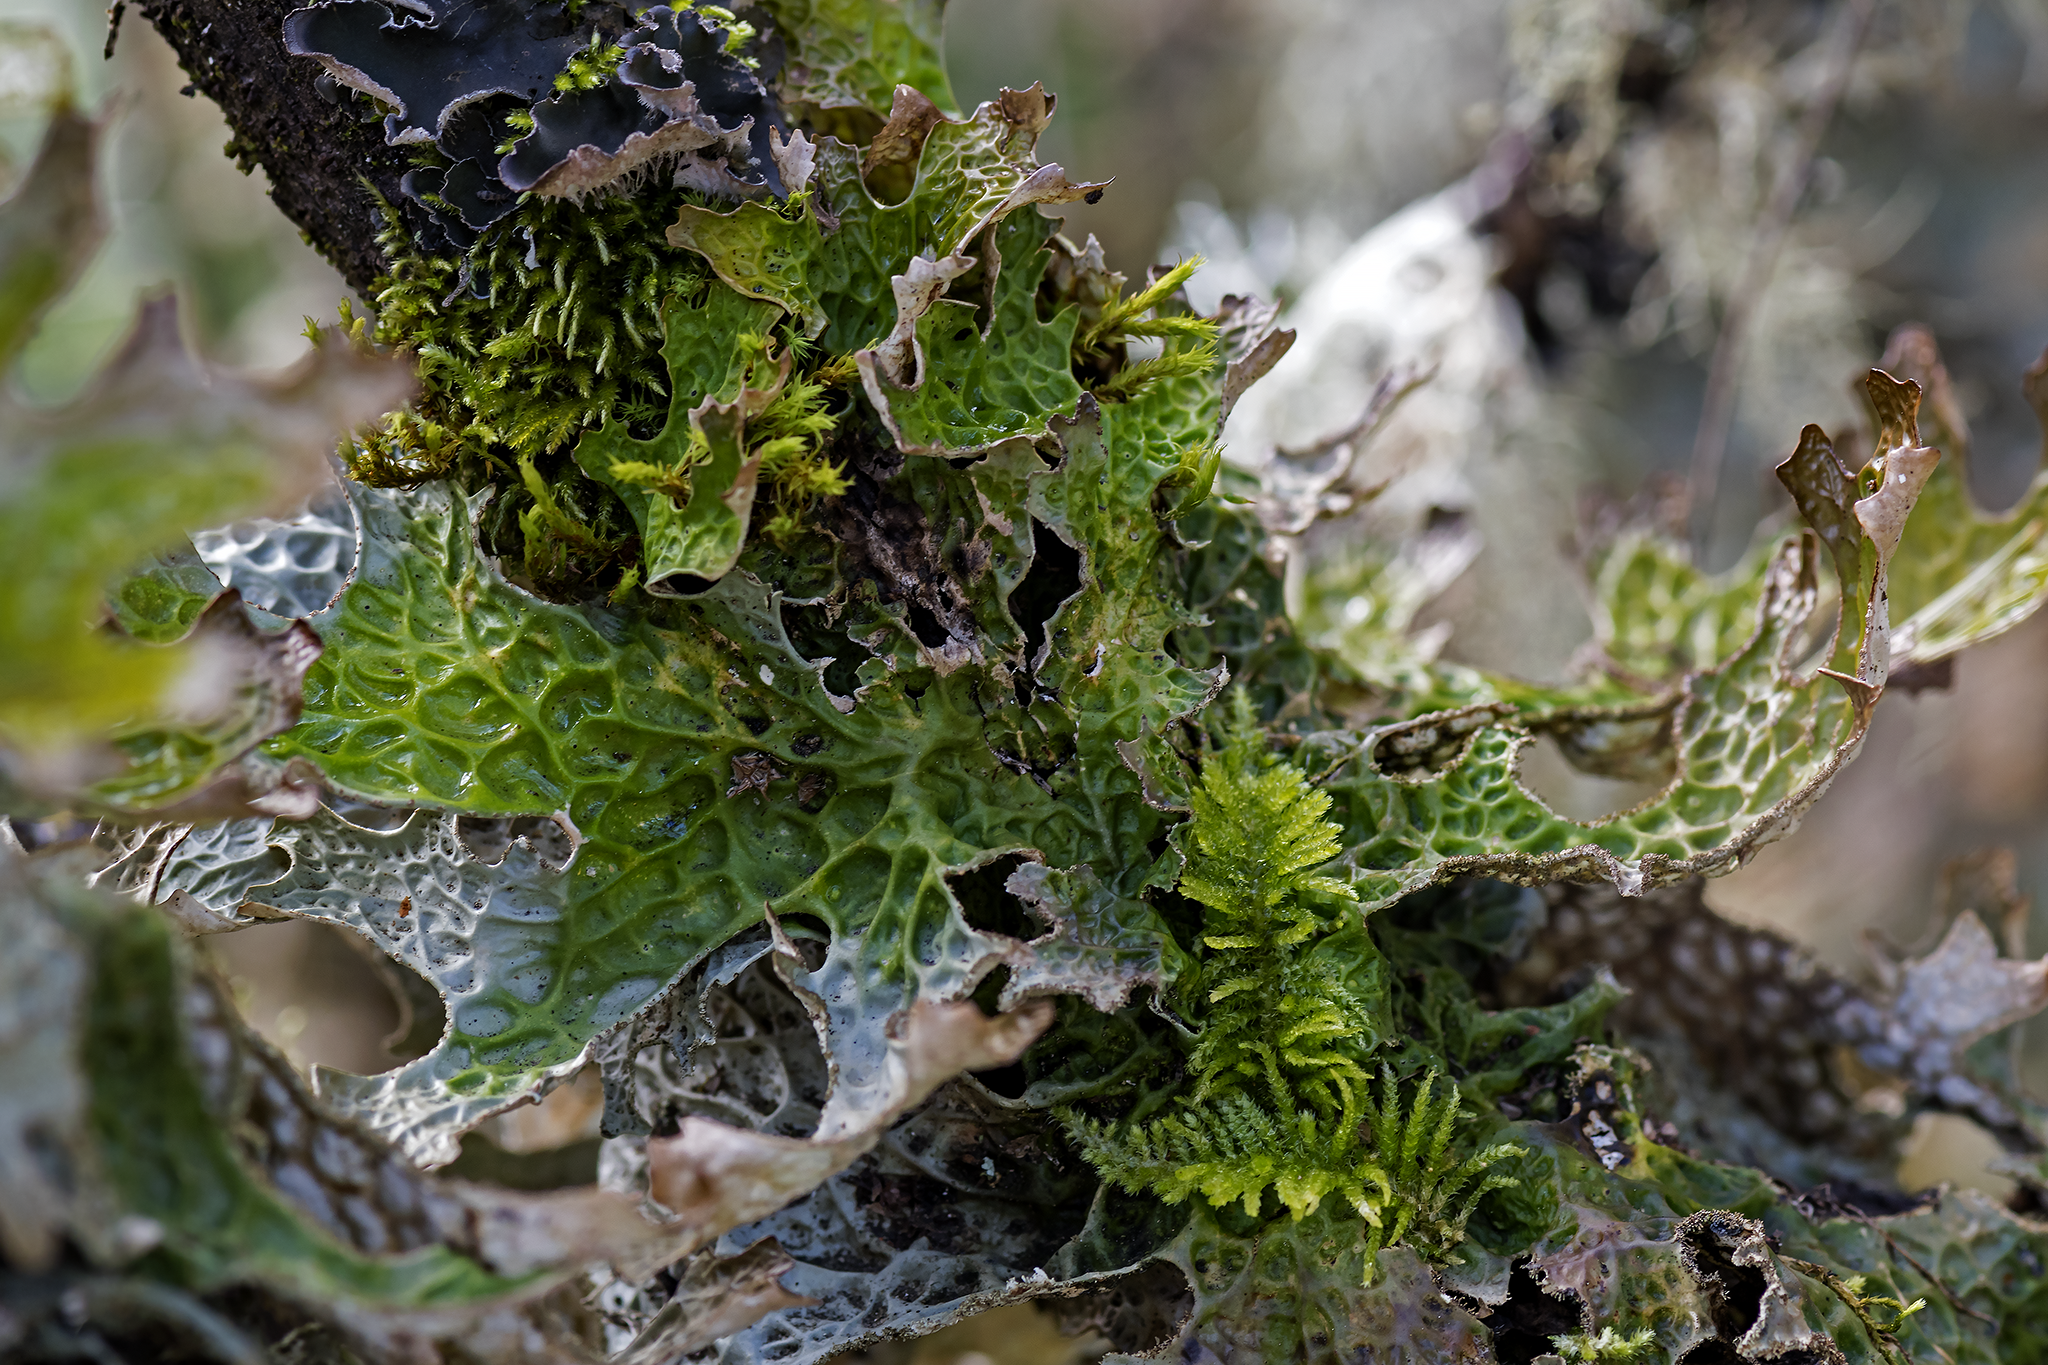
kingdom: Fungi
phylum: Ascomycota
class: Lecanoromycetes
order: Peltigerales
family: Lobariaceae
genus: Lobaria
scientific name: Lobaria pulmonaria
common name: Lungwort
